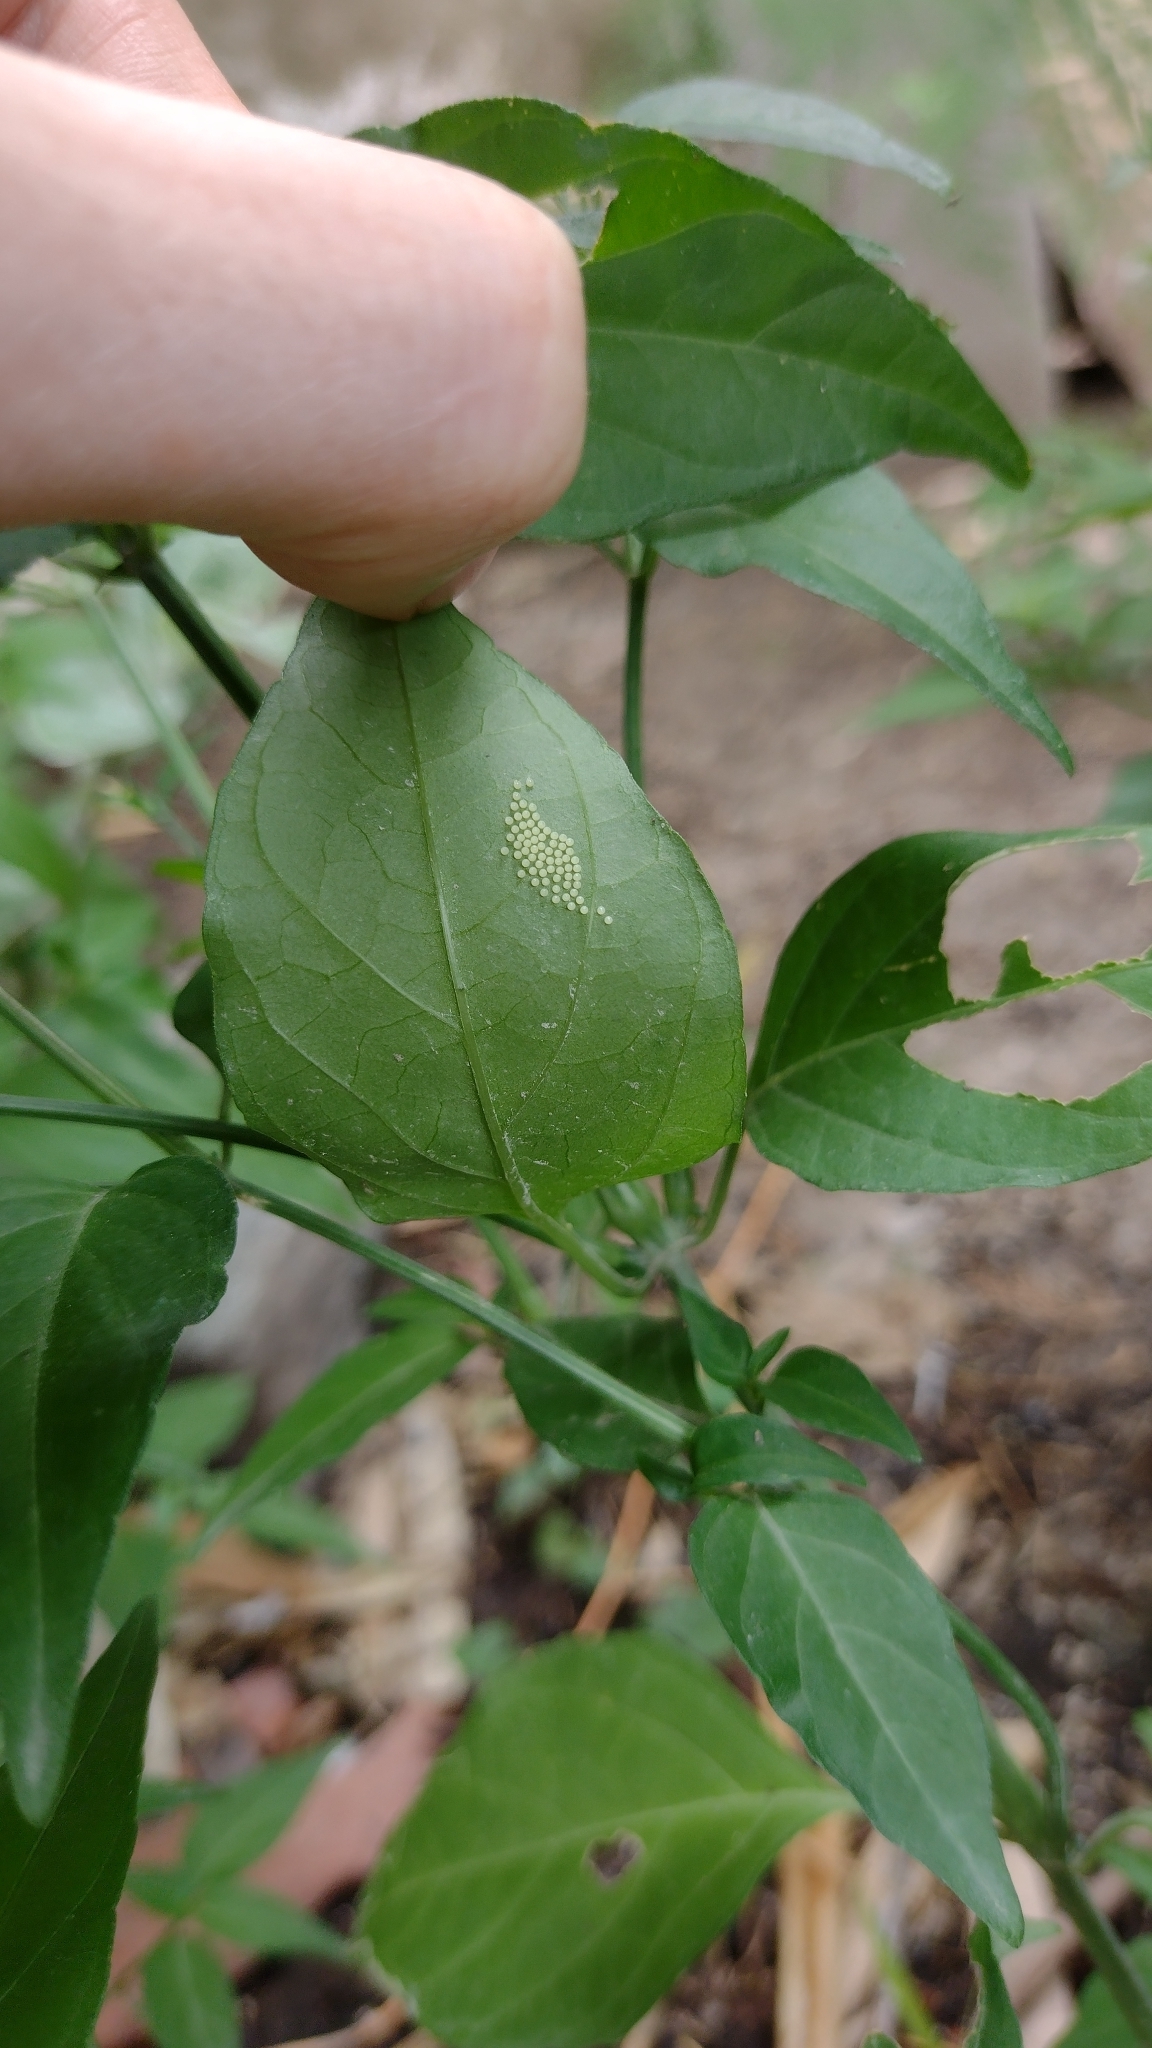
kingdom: Animalia
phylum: Arthropoda
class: Insecta
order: Lepidoptera
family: Nymphalidae
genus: Ortilia
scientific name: Ortilia ithra
